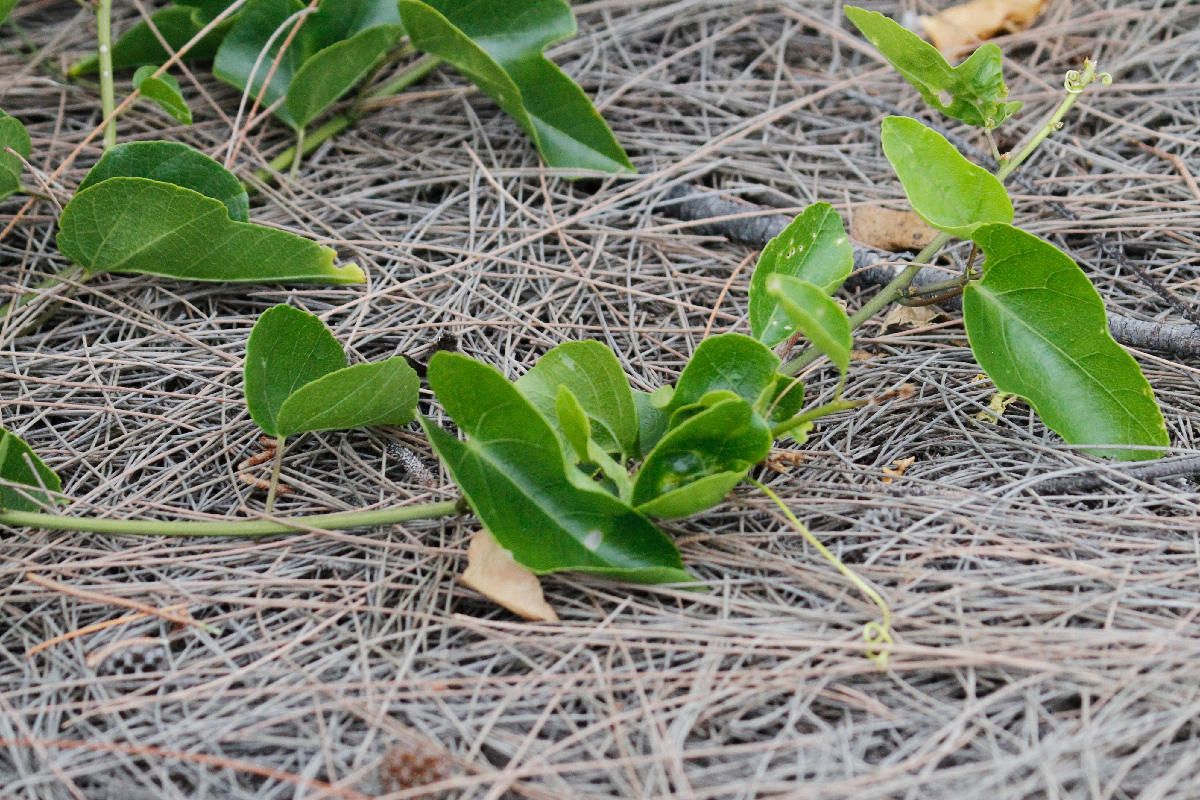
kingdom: Plantae
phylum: Tracheophyta
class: Magnoliopsida
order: Solanales
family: Convolvulaceae
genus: Ipomoea
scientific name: Ipomoea pes-caprae
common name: Beach morning glory
